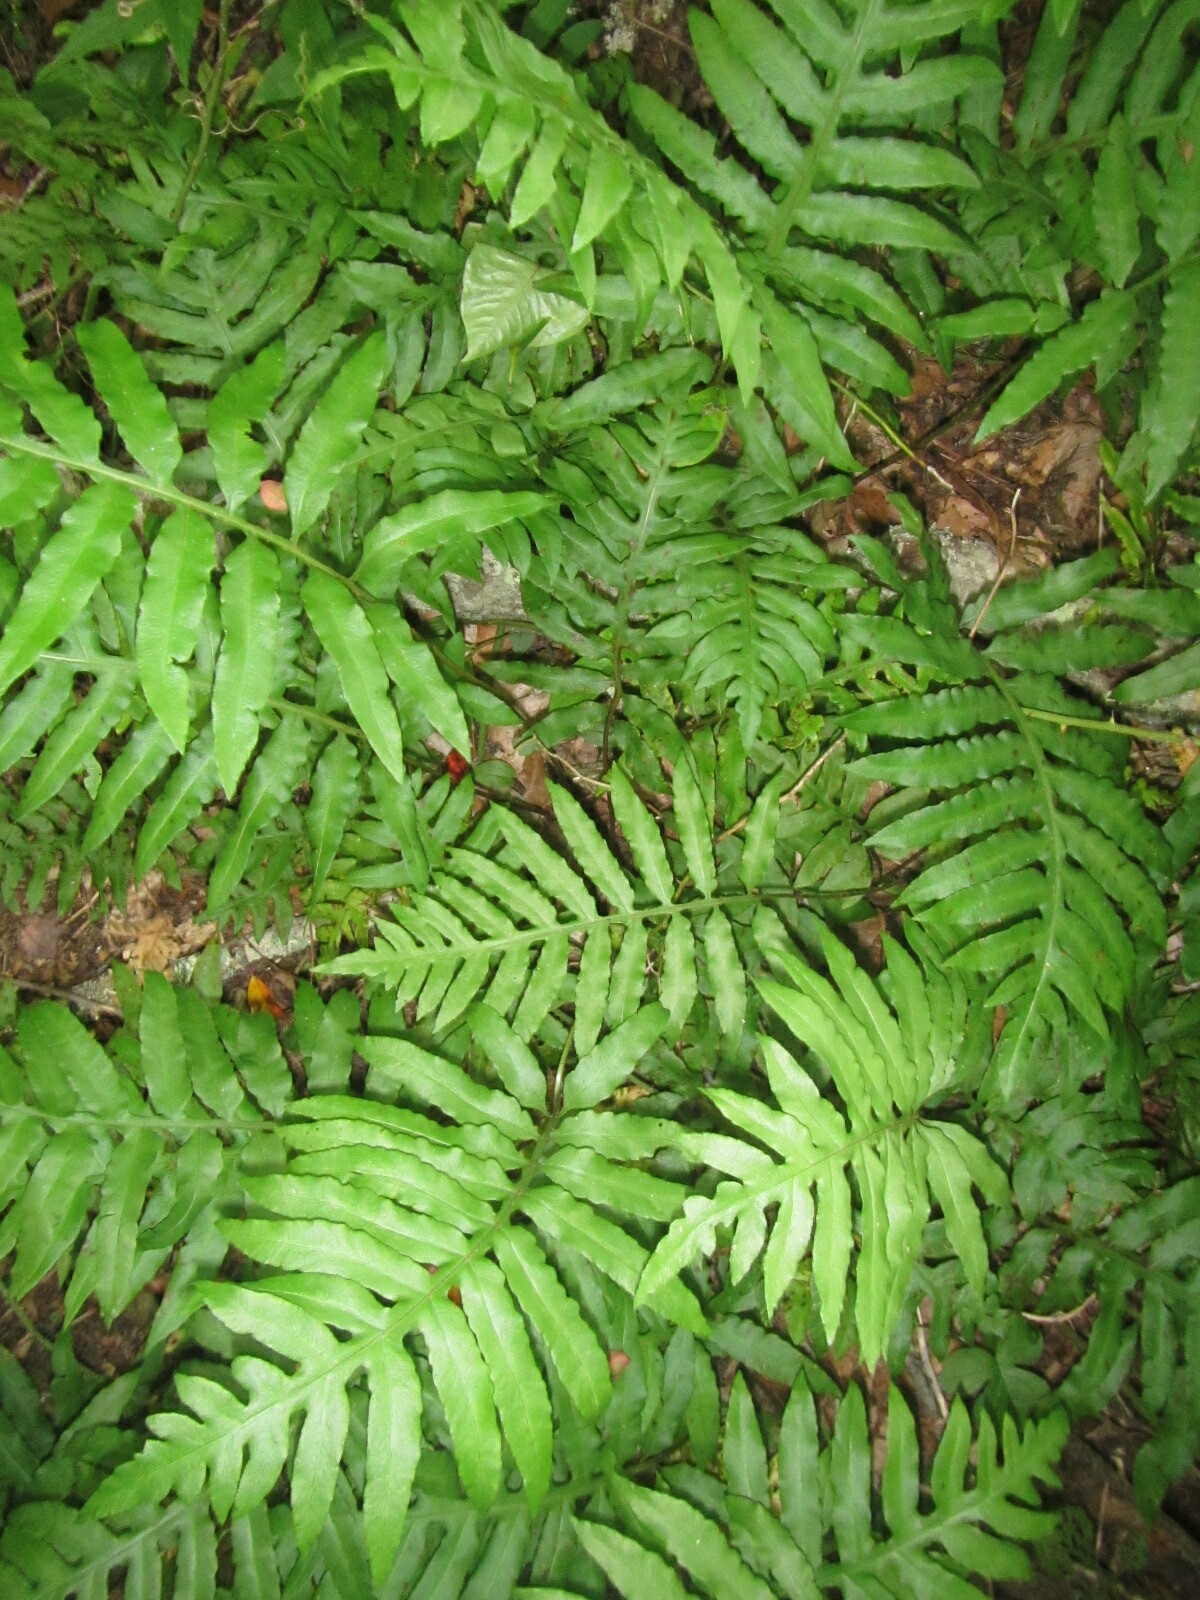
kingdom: Plantae
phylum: Tracheophyta
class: Polypodiopsida
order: Polypodiales
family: Blechnaceae
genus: Lorinseria
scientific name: Lorinseria areolata
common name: Dwarf chain fern
